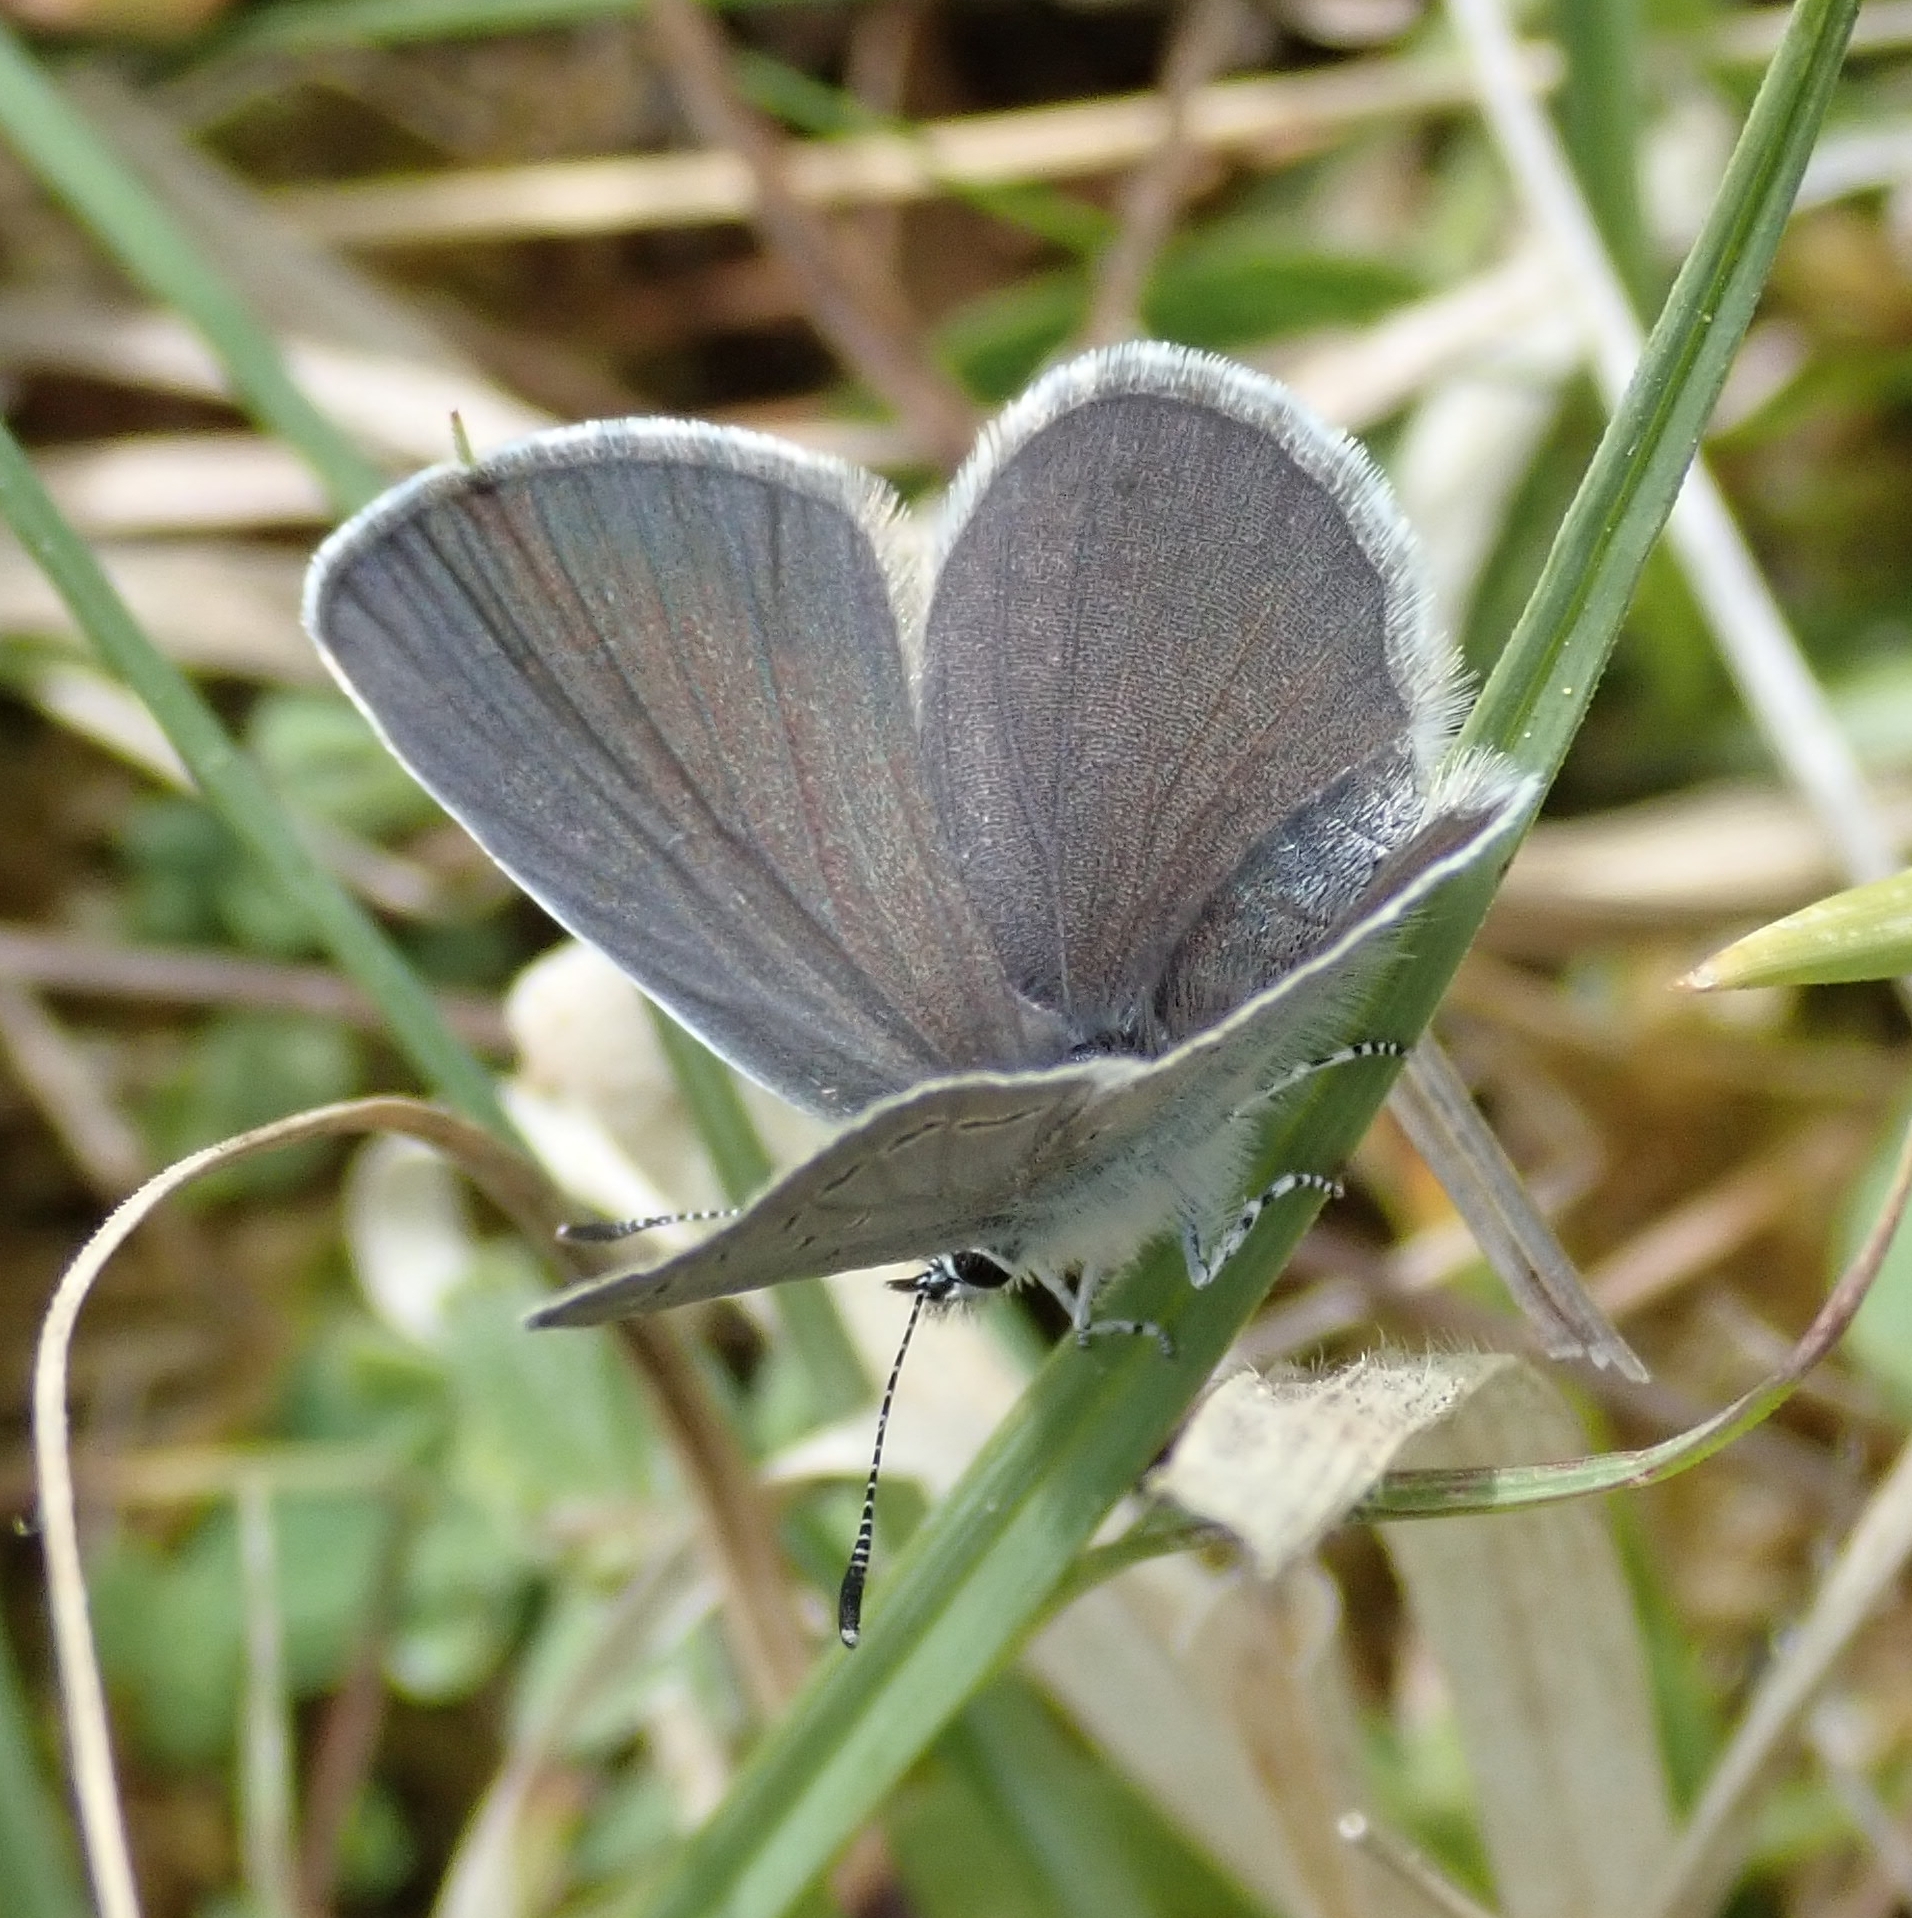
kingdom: Animalia
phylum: Arthropoda
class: Insecta
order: Lepidoptera
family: Lycaenidae
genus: Cupido
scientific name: Cupido minimus
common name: Small blue
